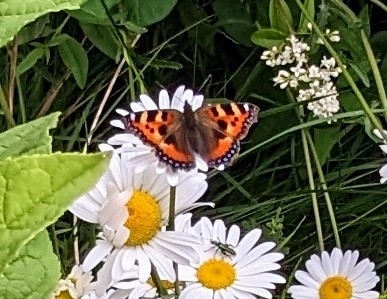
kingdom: Animalia
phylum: Arthropoda
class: Insecta
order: Lepidoptera
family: Nymphalidae
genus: Aglais
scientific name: Aglais urticae
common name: Small tortoiseshell
